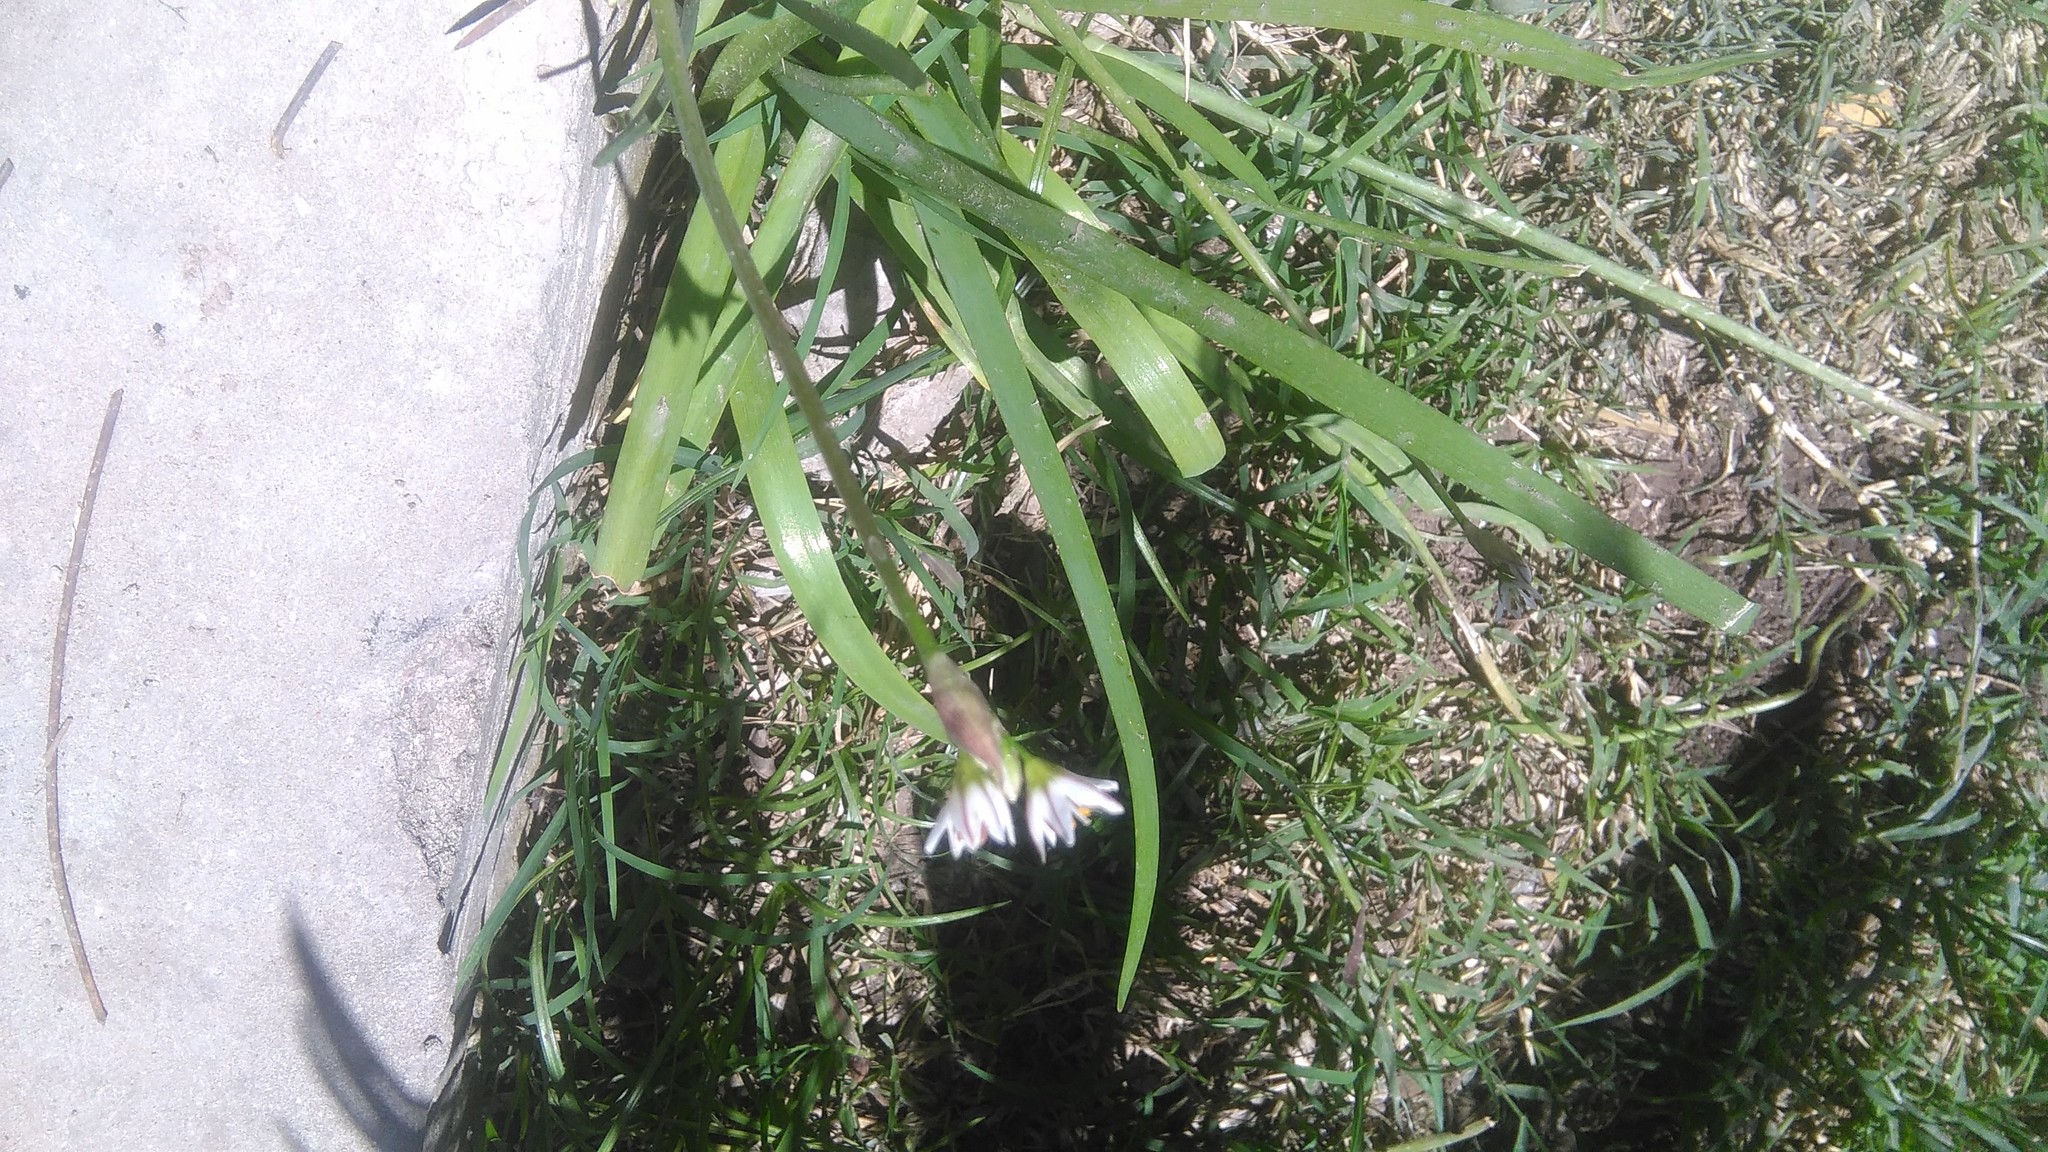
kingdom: Plantae
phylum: Tracheophyta
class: Liliopsida
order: Asparagales
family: Amaryllidaceae
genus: Nothoscordum
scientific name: Nothoscordum gracile
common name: Slender false garlic
